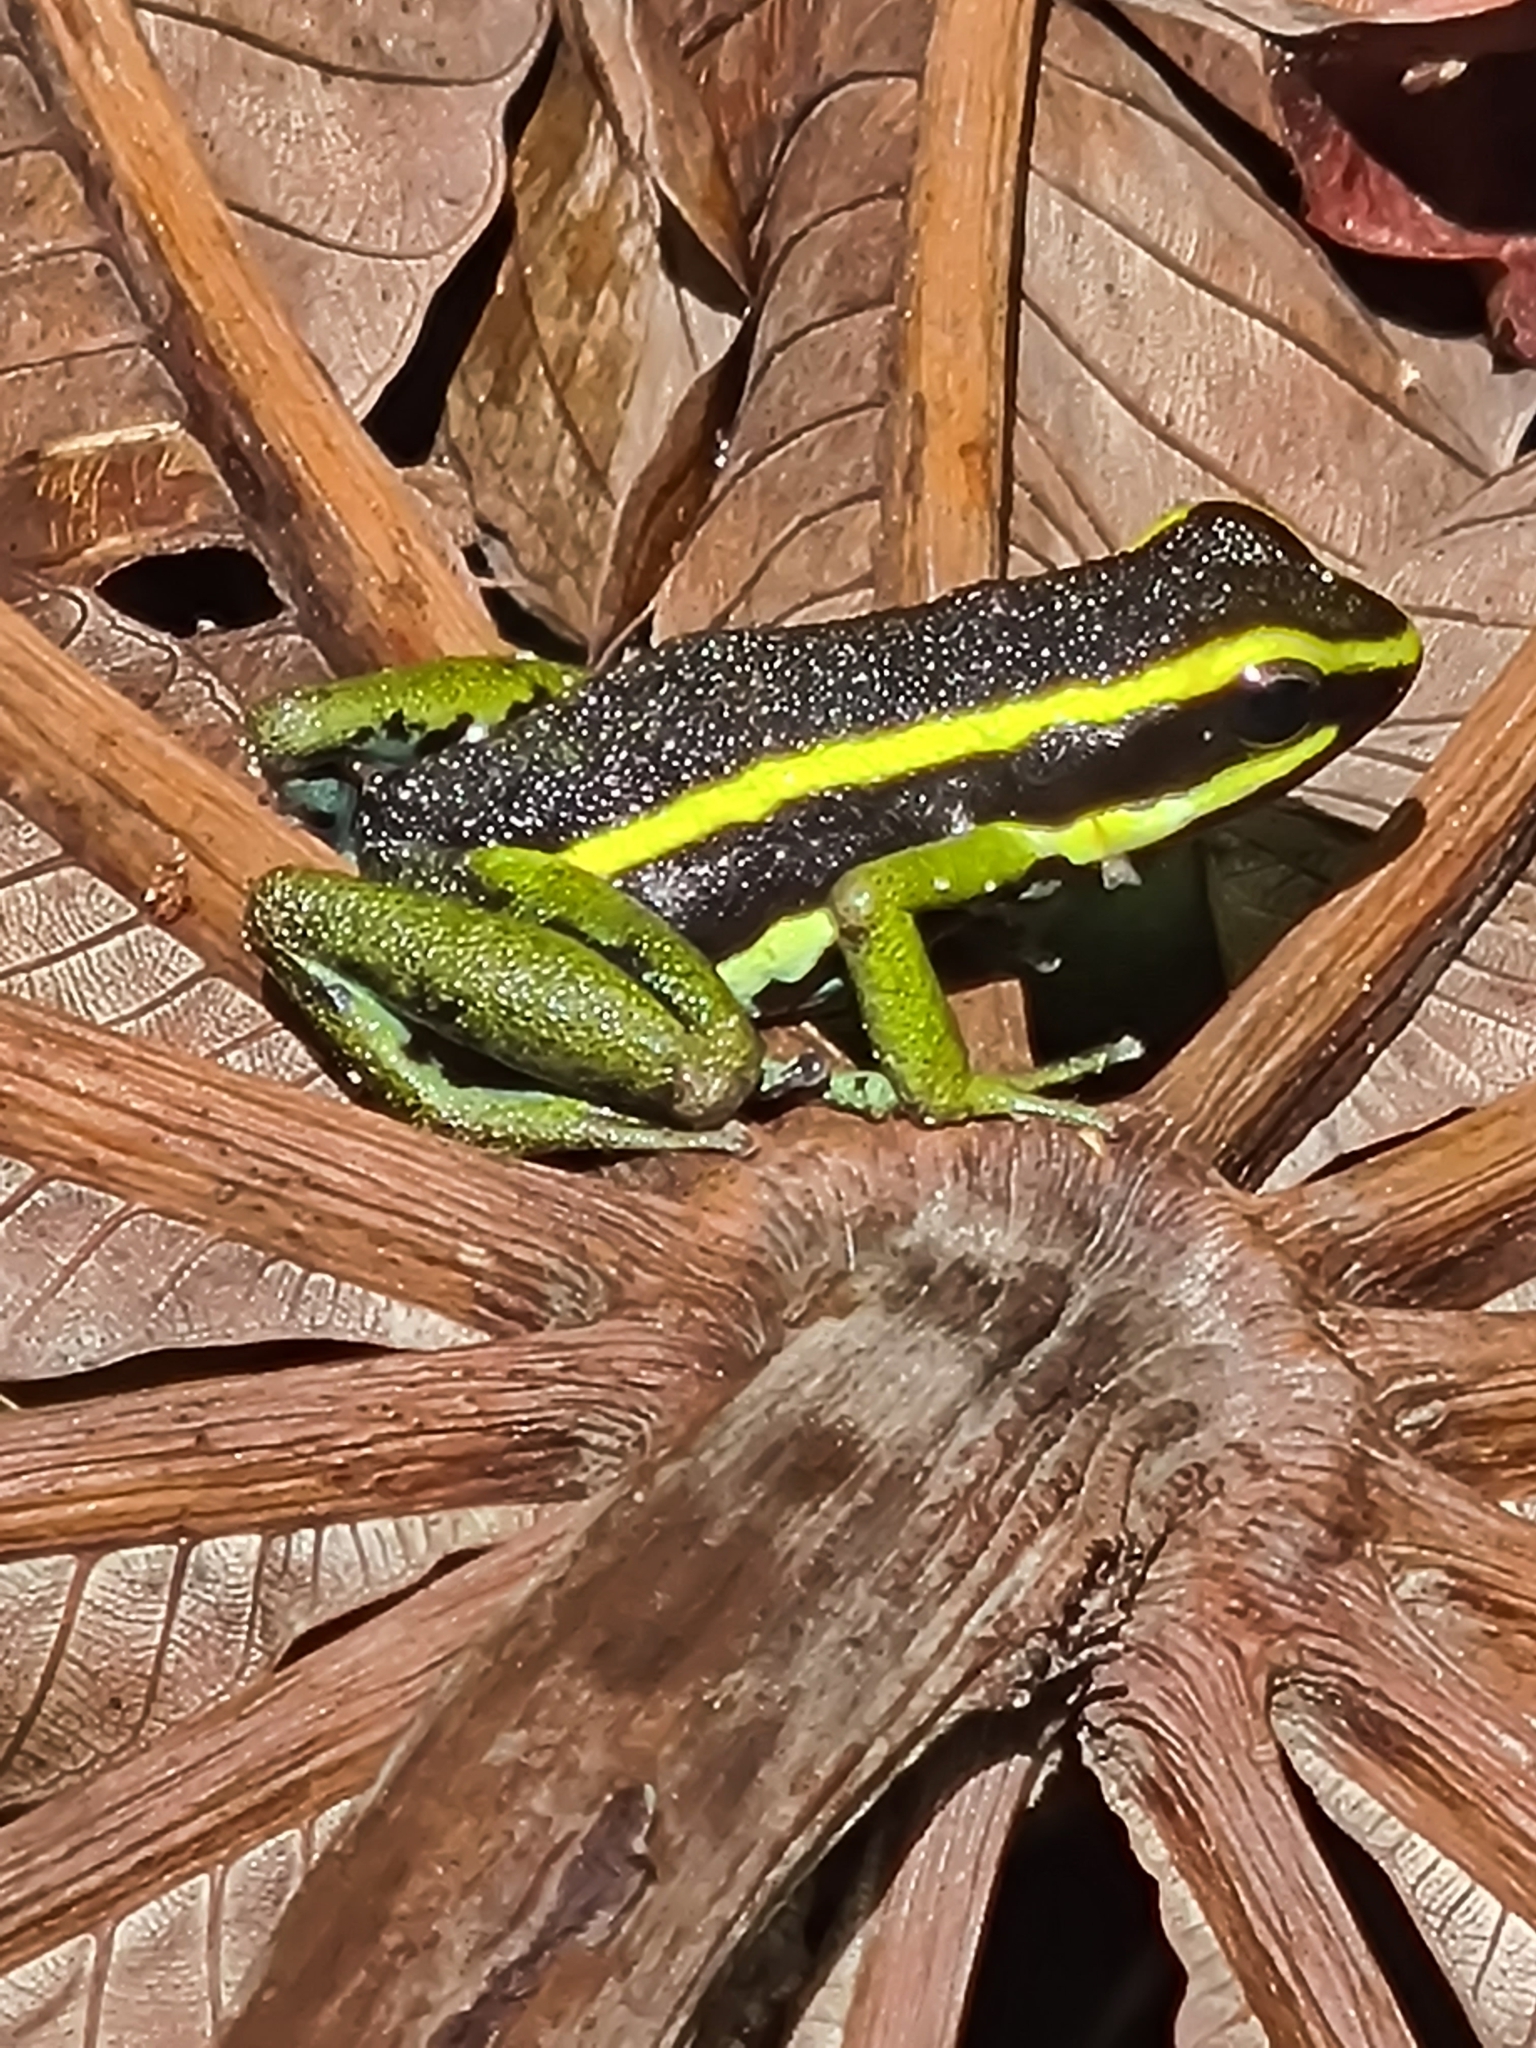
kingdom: Animalia
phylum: Chordata
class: Amphibia
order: Anura
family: Dendrobatidae
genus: Ameerega
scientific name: Ameerega trivittata
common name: Three-striped arrow-poison frog
